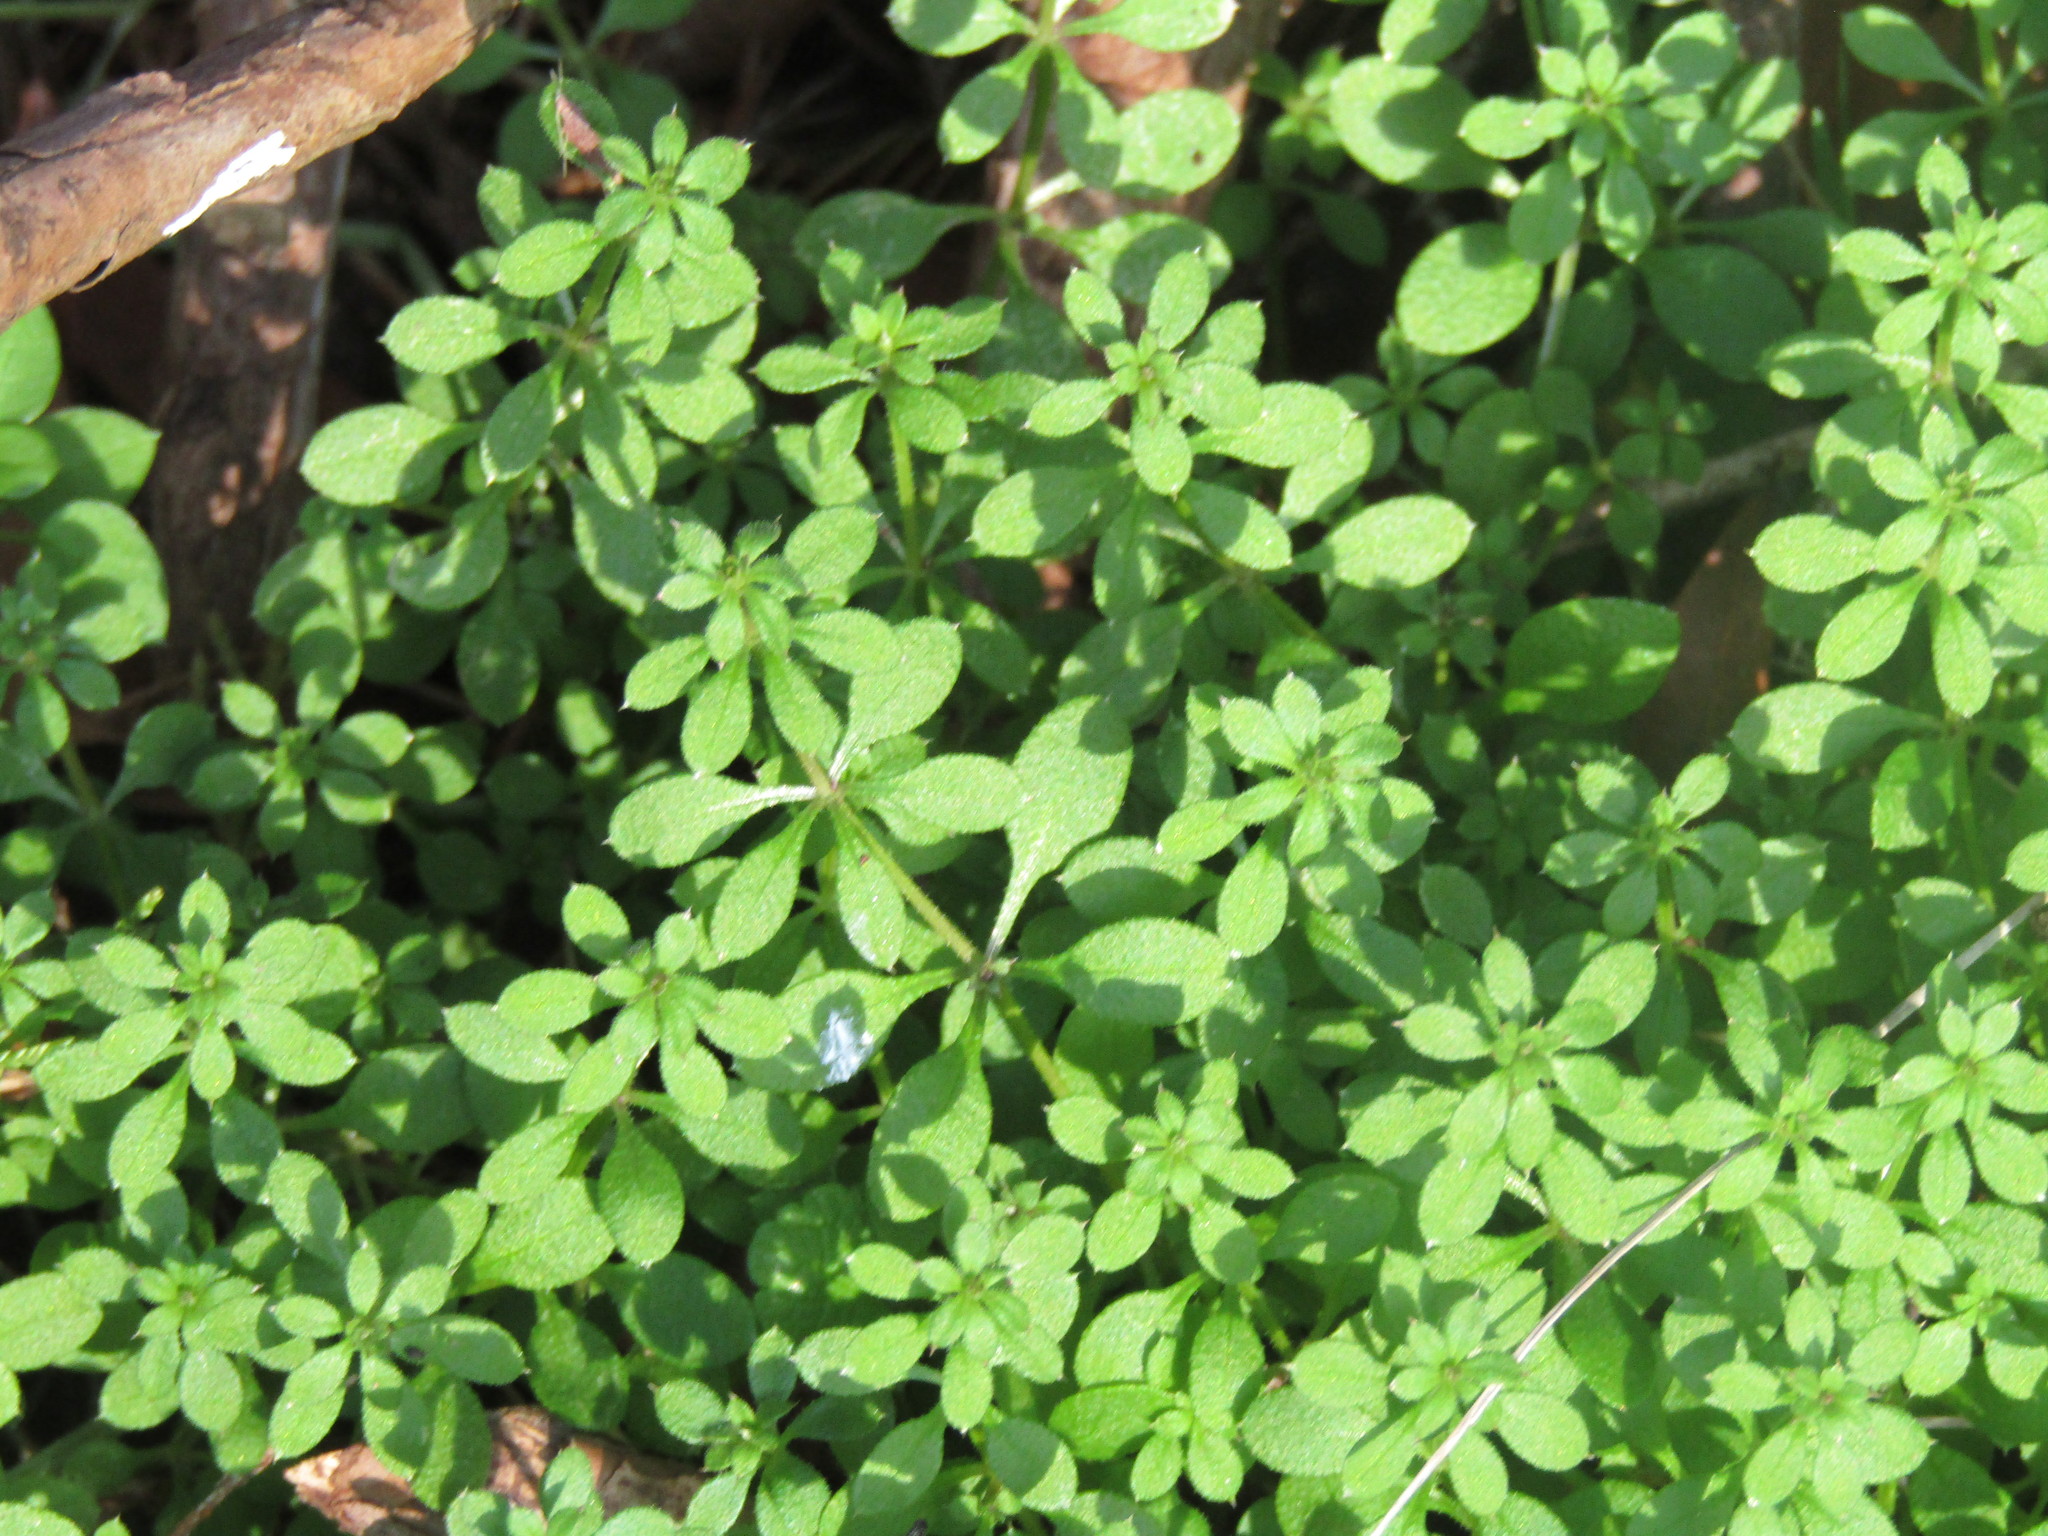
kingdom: Plantae
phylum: Tracheophyta
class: Magnoliopsida
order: Gentianales
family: Rubiaceae
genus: Galium
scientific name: Galium aparine
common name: Cleavers
